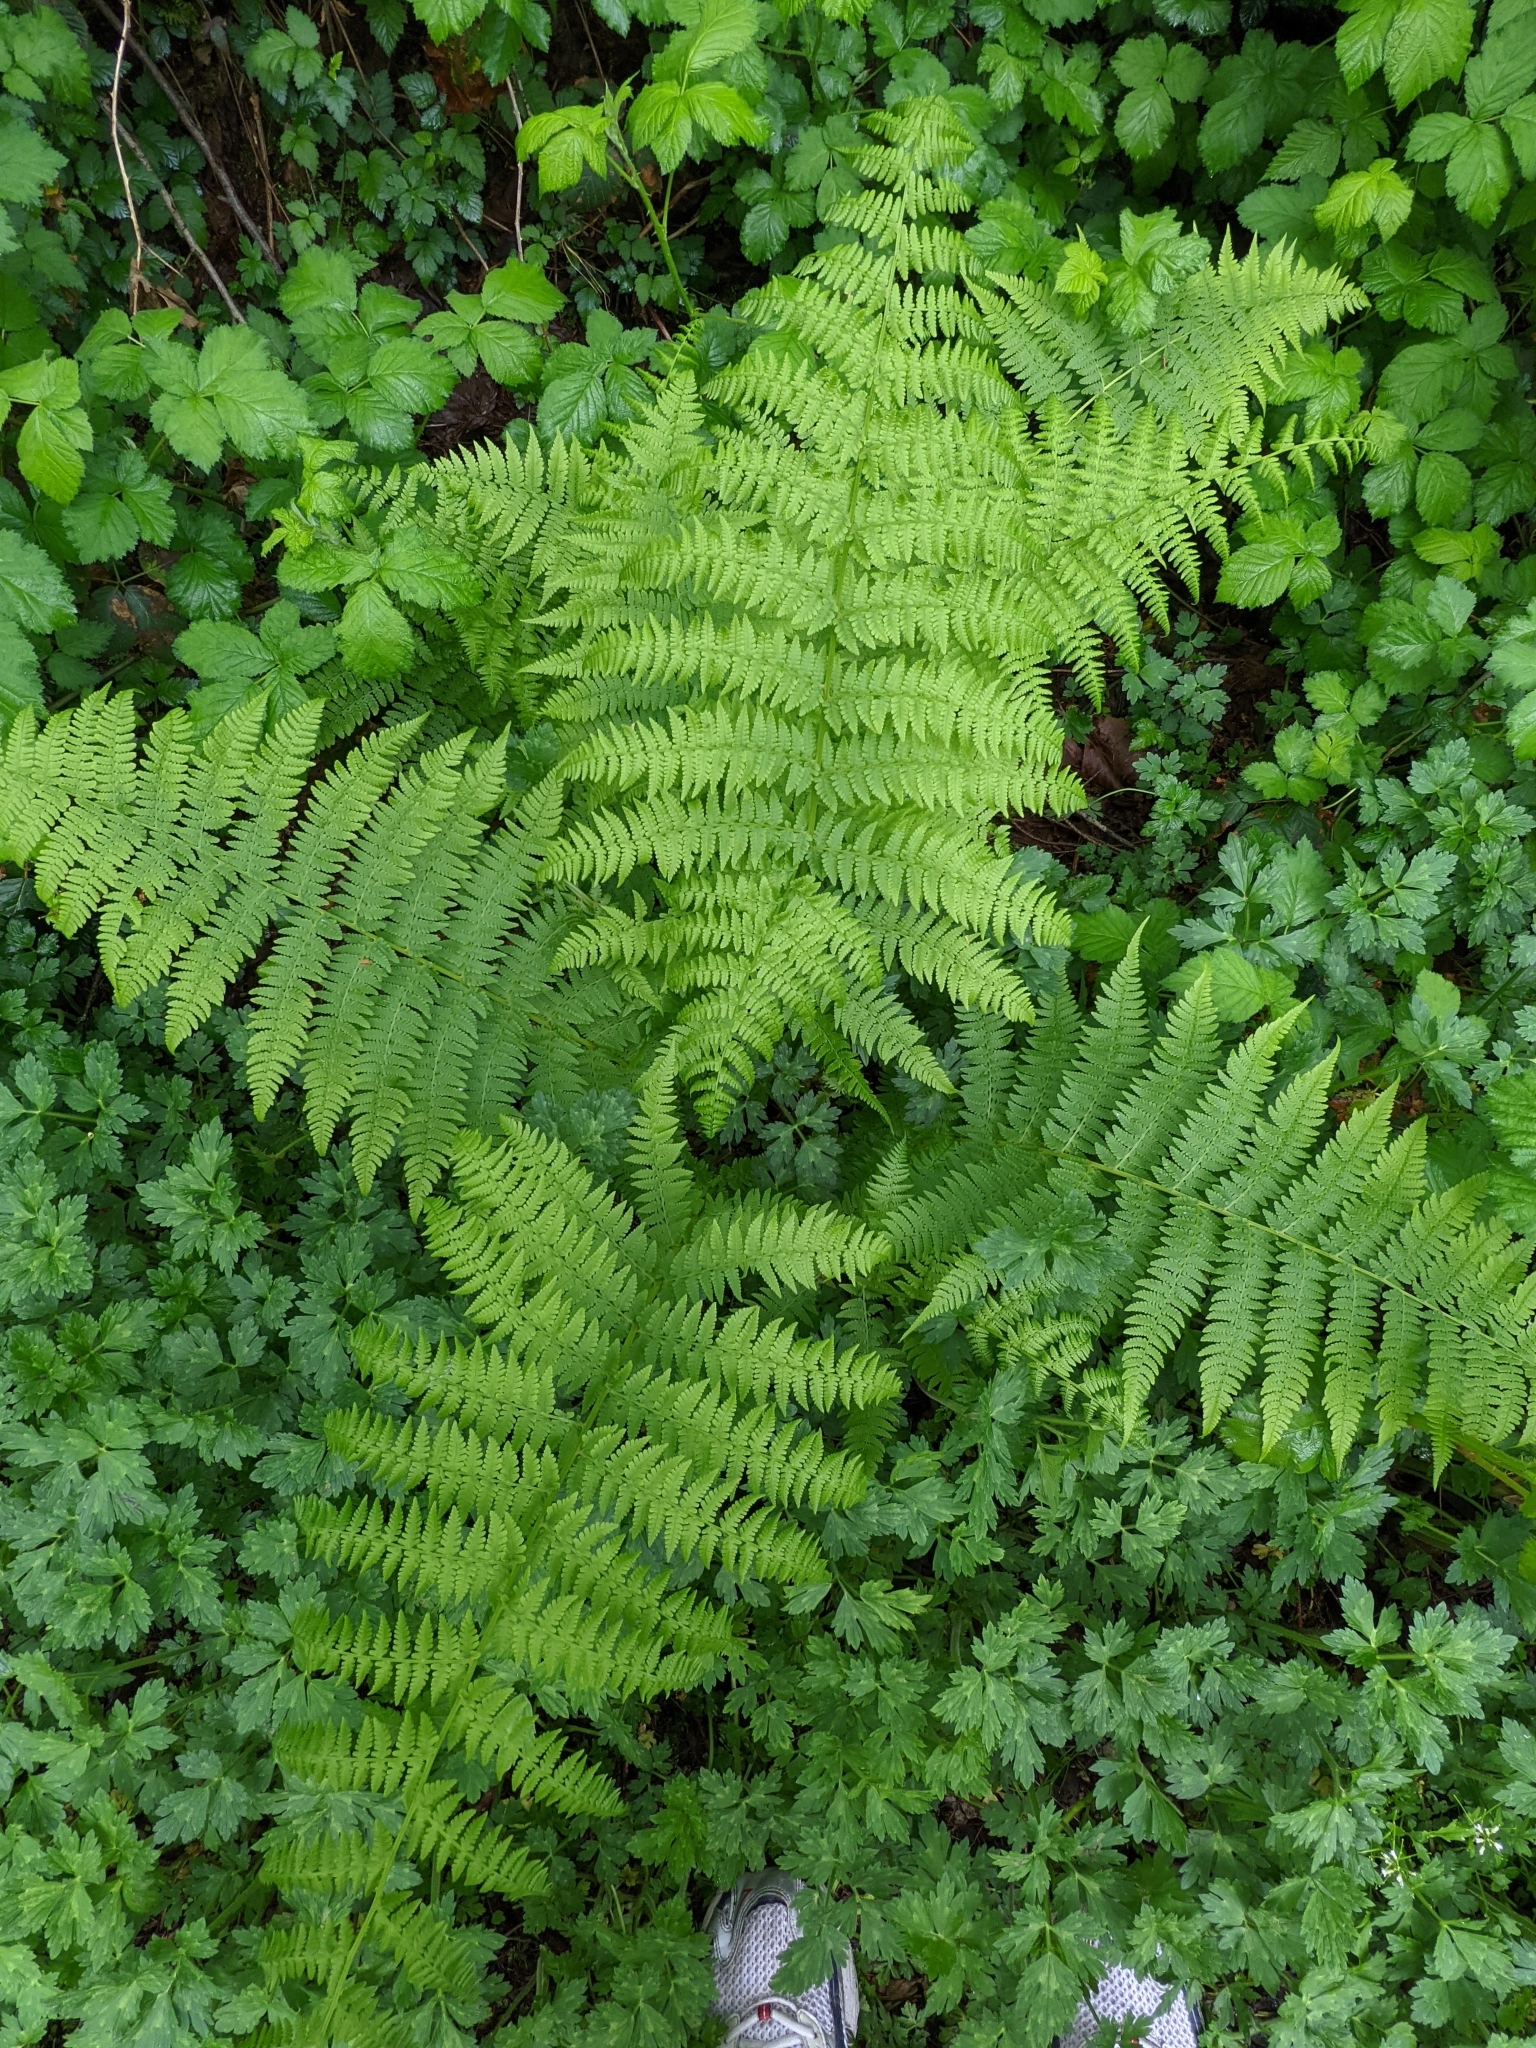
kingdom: Plantae
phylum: Tracheophyta
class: Polypodiopsida
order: Polypodiales
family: Athyriaceae
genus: Athyrium
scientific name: Athyrium filix-femina
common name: Lady fern
